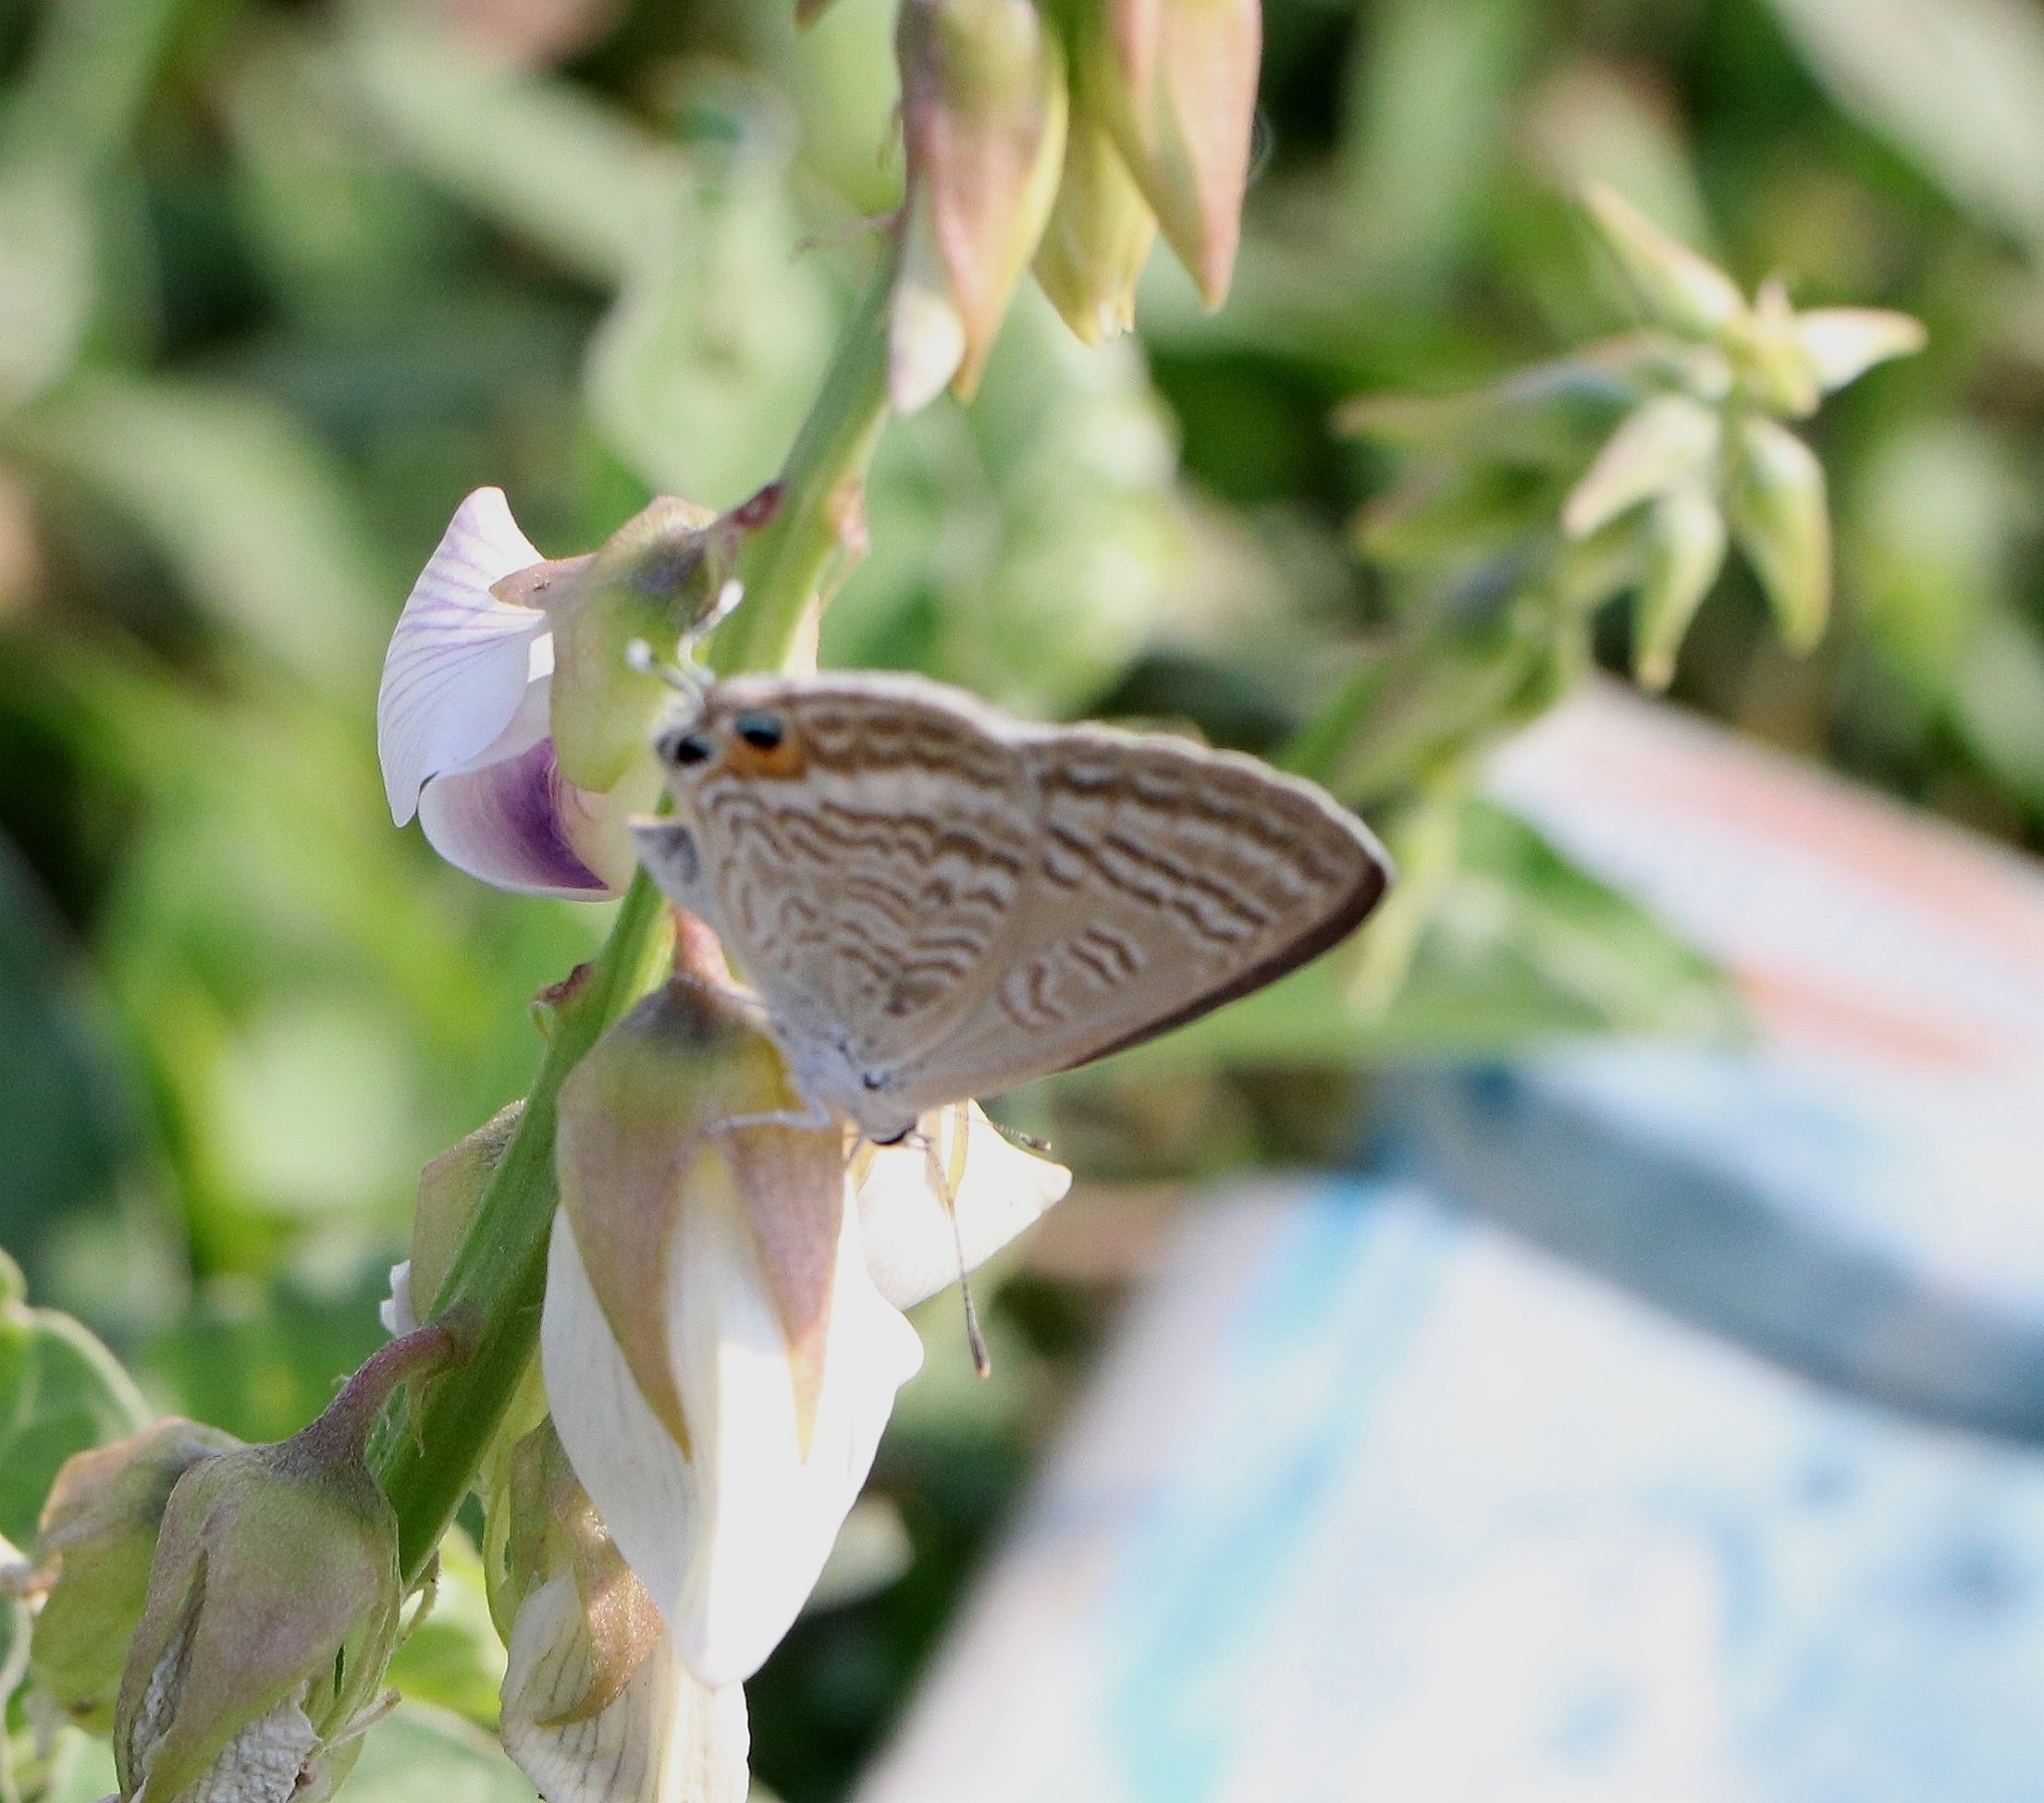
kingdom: Animalia
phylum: Arthropoda
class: Insecta
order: Lepidoptera
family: Lycaenidae
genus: Lampides
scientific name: Lampides boeticus
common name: Long-tailed blue
